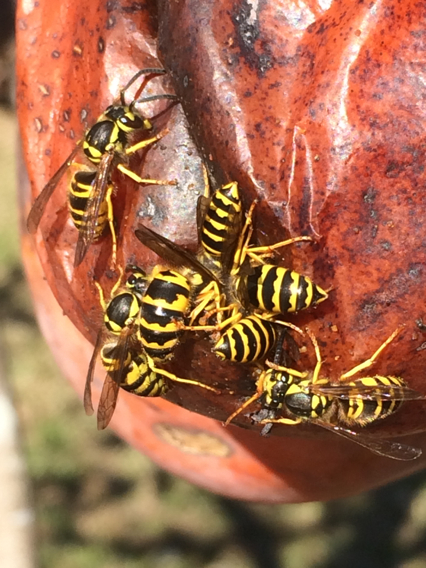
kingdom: Animalia
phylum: Arthropoda
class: Insecta
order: Hymenoptera
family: Vespidae
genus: Vespula
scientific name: Vespula maculifrons
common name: Eastern yellowjacket
